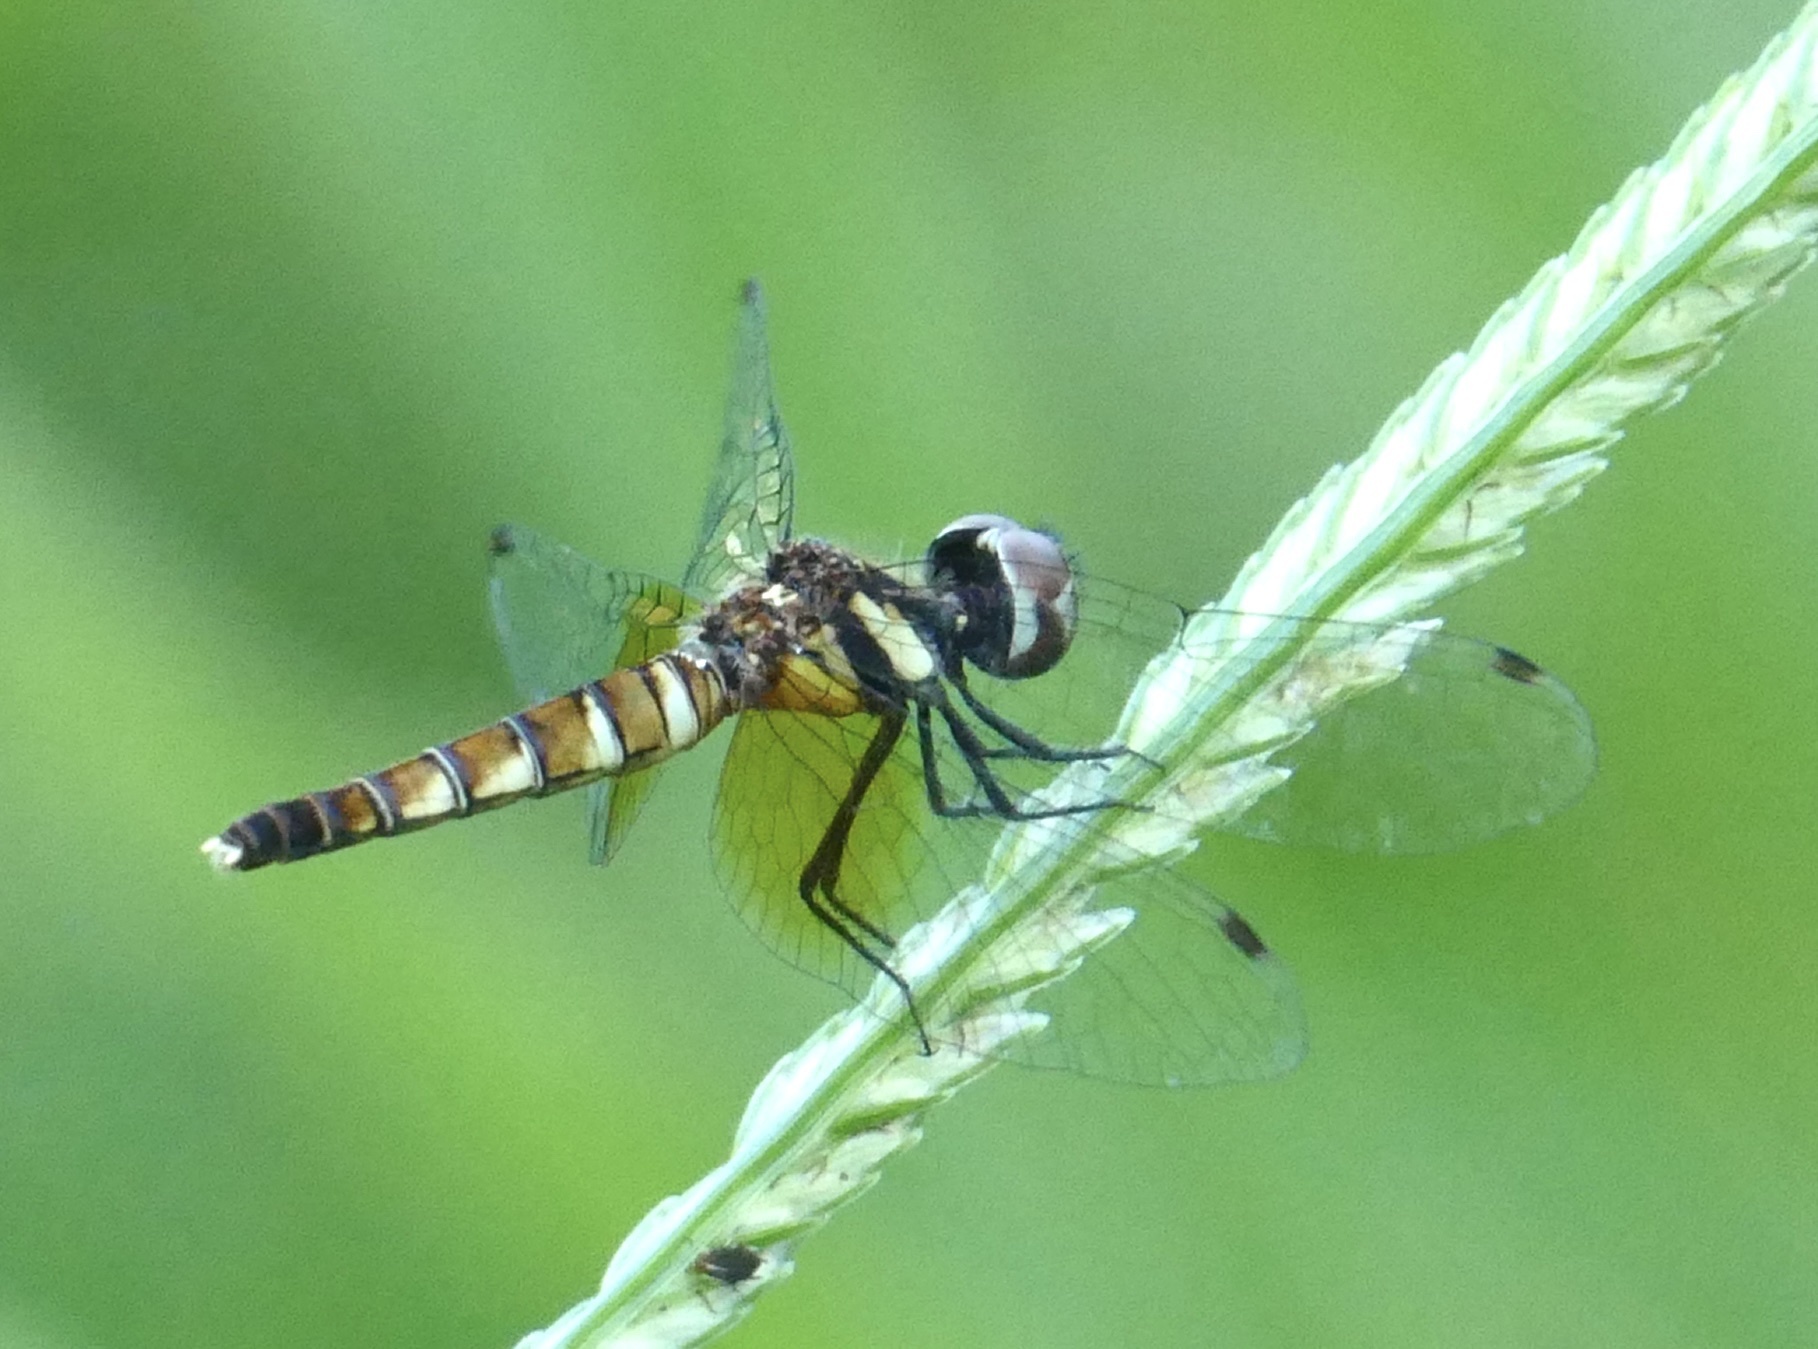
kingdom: Animalia
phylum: Arthropoda
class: Insecta
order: Odonata
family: Libellulidae
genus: Nannophya
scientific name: Nannophya pygmaea
